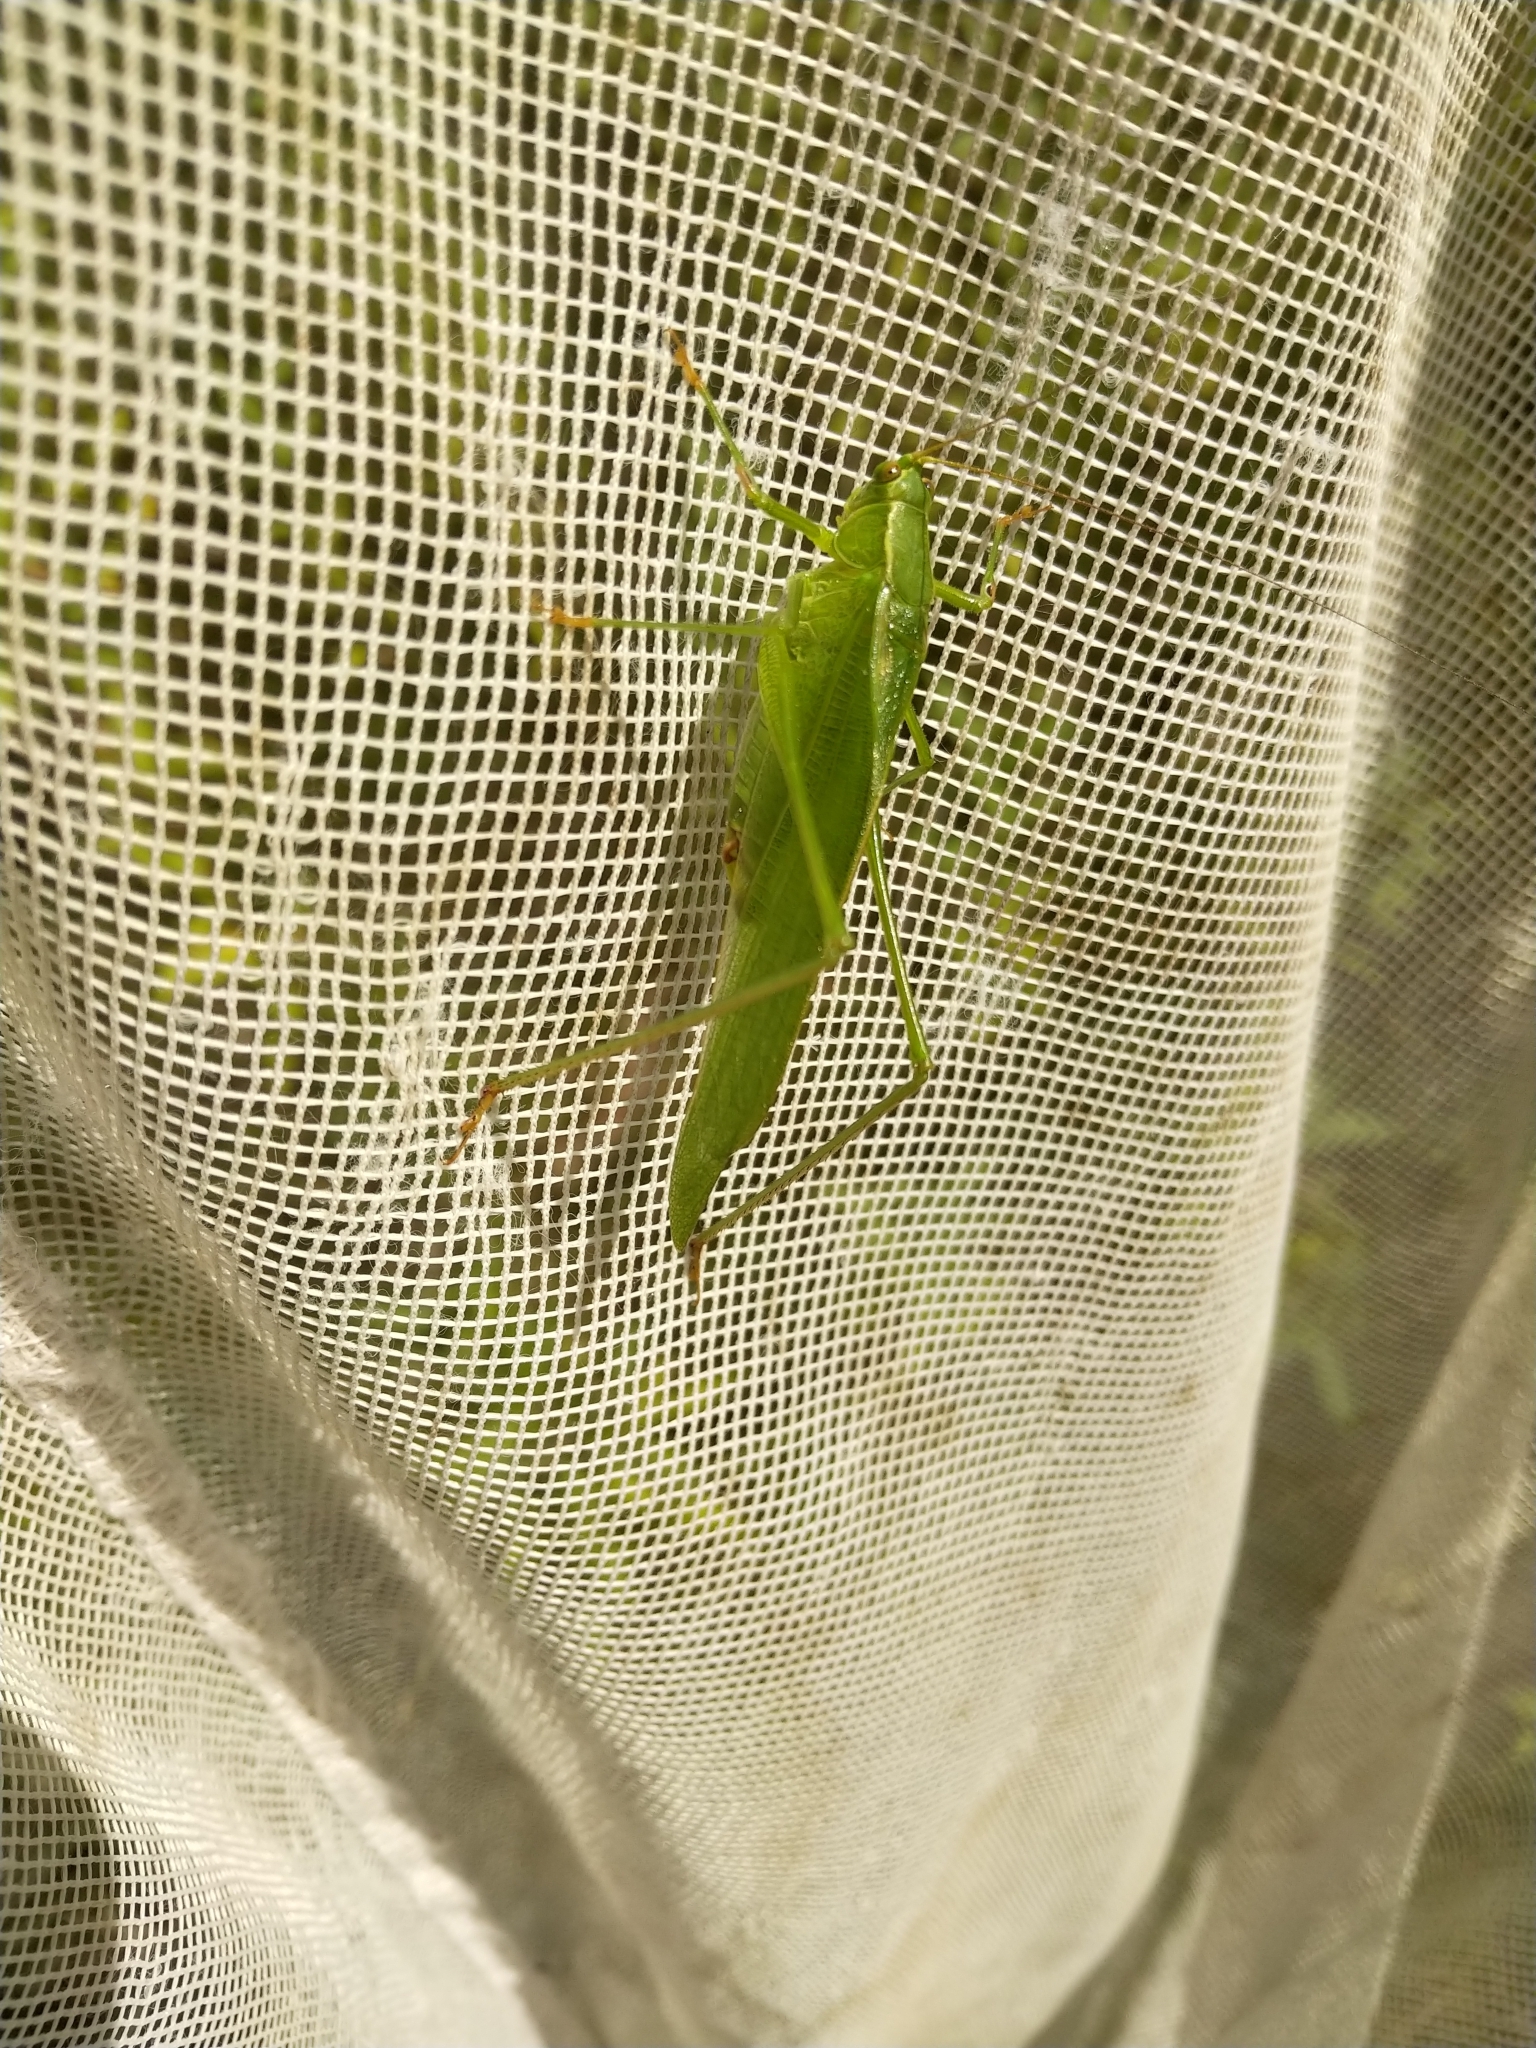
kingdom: Animalia
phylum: Arthropoda
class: Insecta
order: Orthoptera
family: Tettigoniidae
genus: Scudderia
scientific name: Scudderia furcata
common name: Fork-tailed bush katydid
